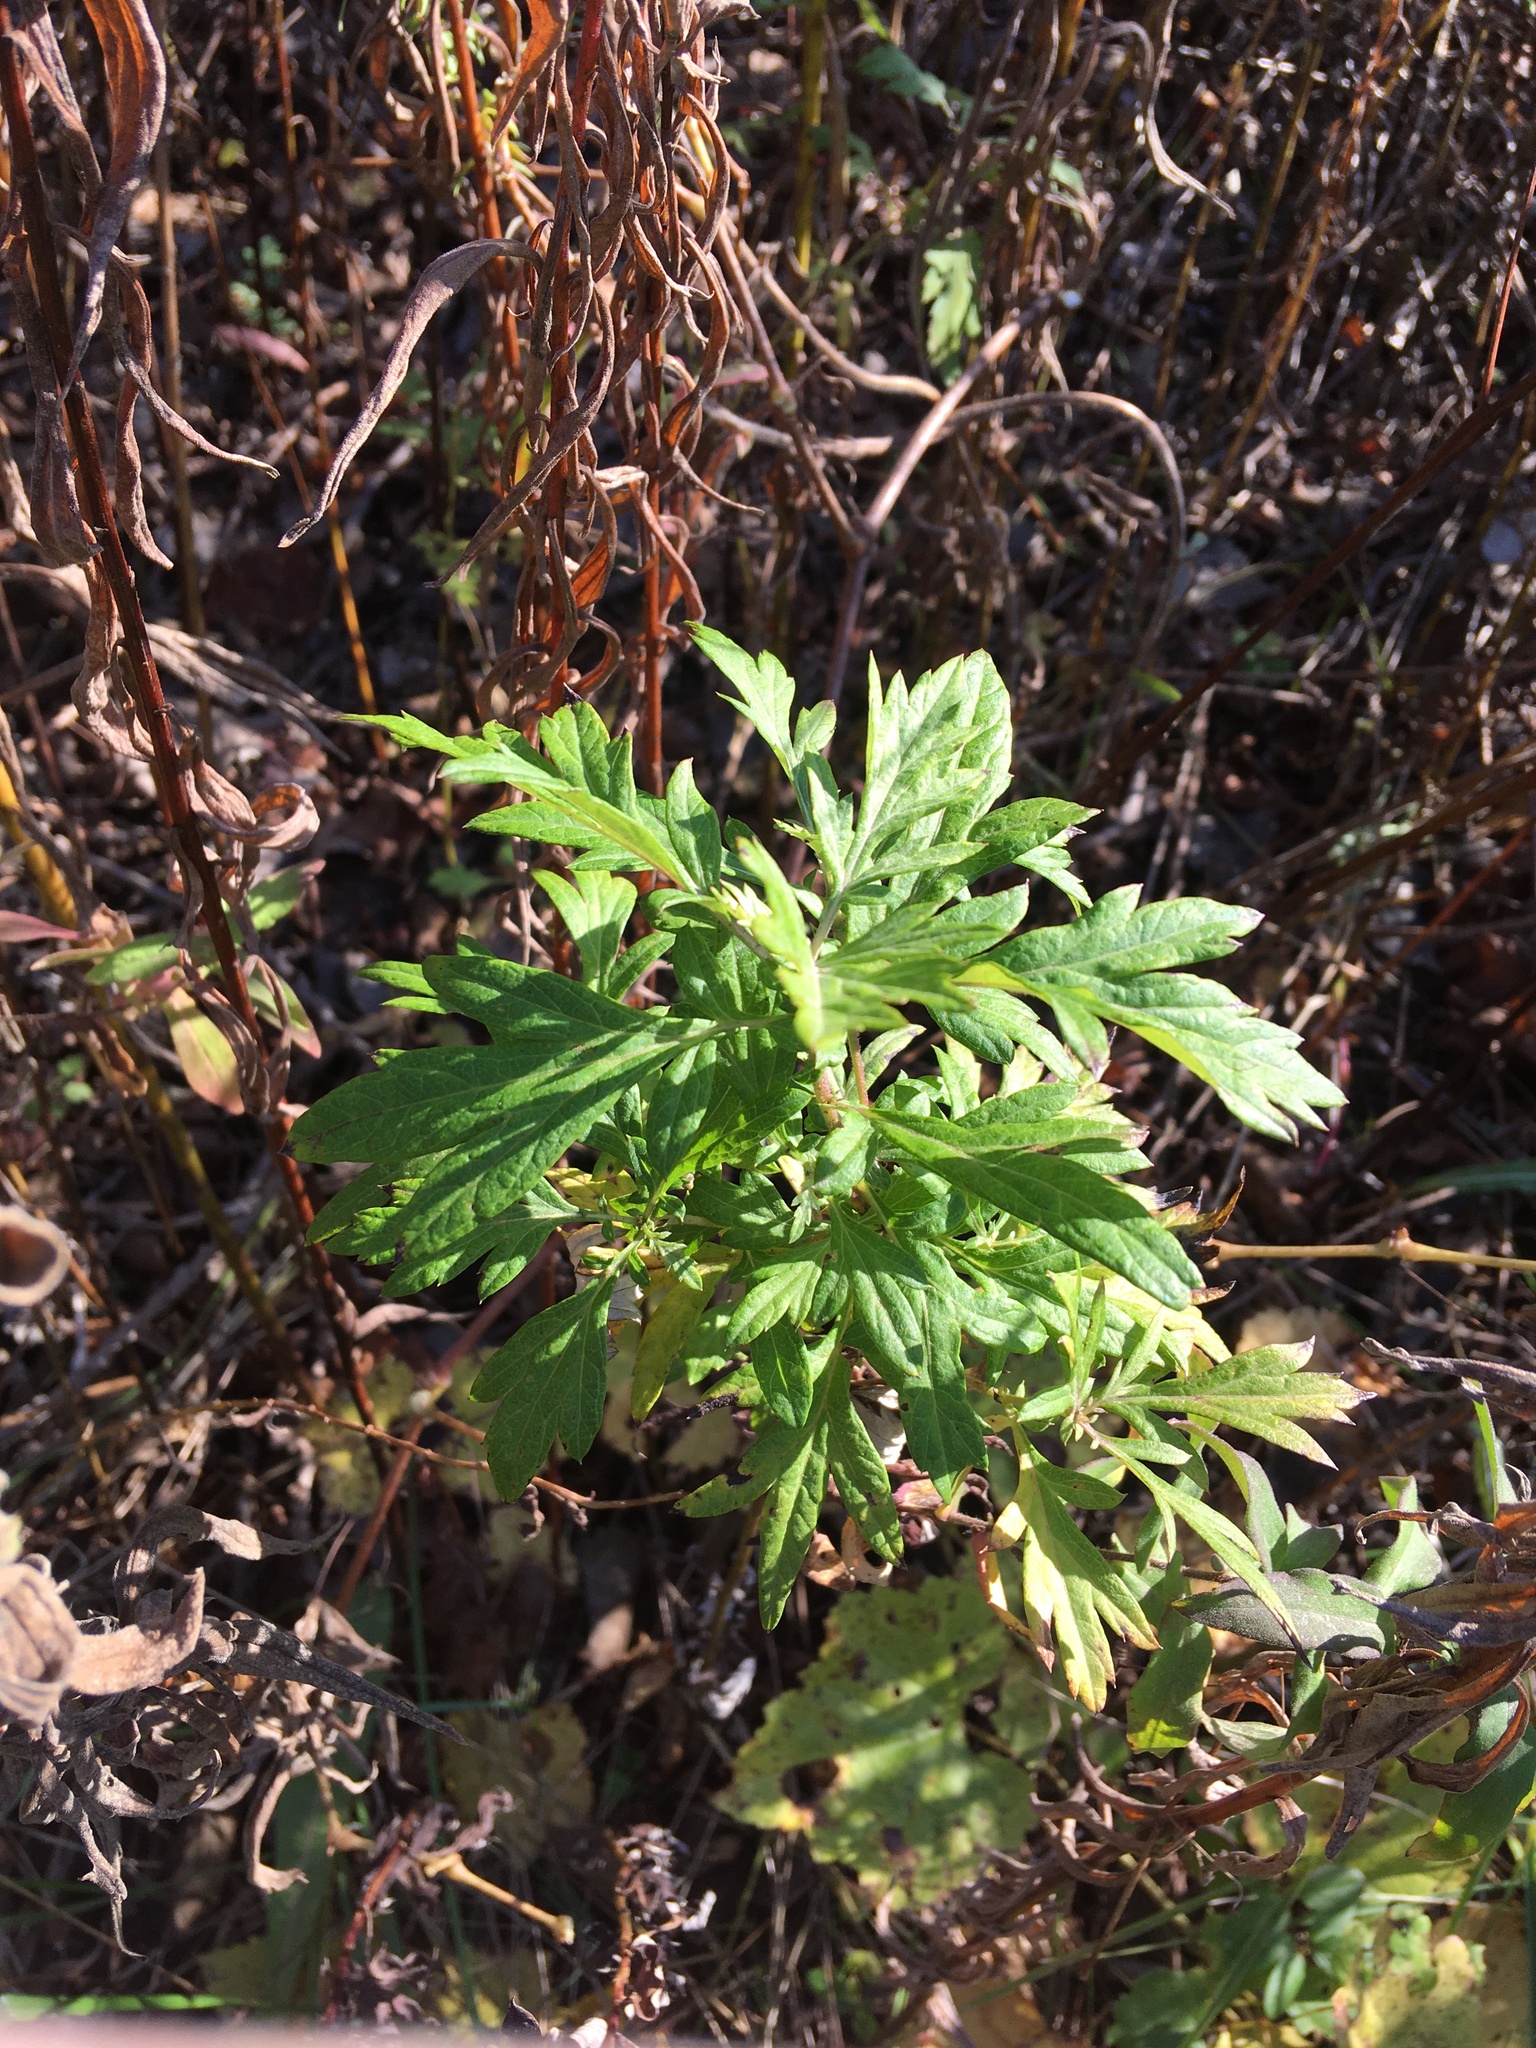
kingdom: Plantae
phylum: Tracheophyta
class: Magnoliopsida
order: Asterales
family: Asteraceae
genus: Artemisia
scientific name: Artemisia vulgaris
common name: Mugwort
